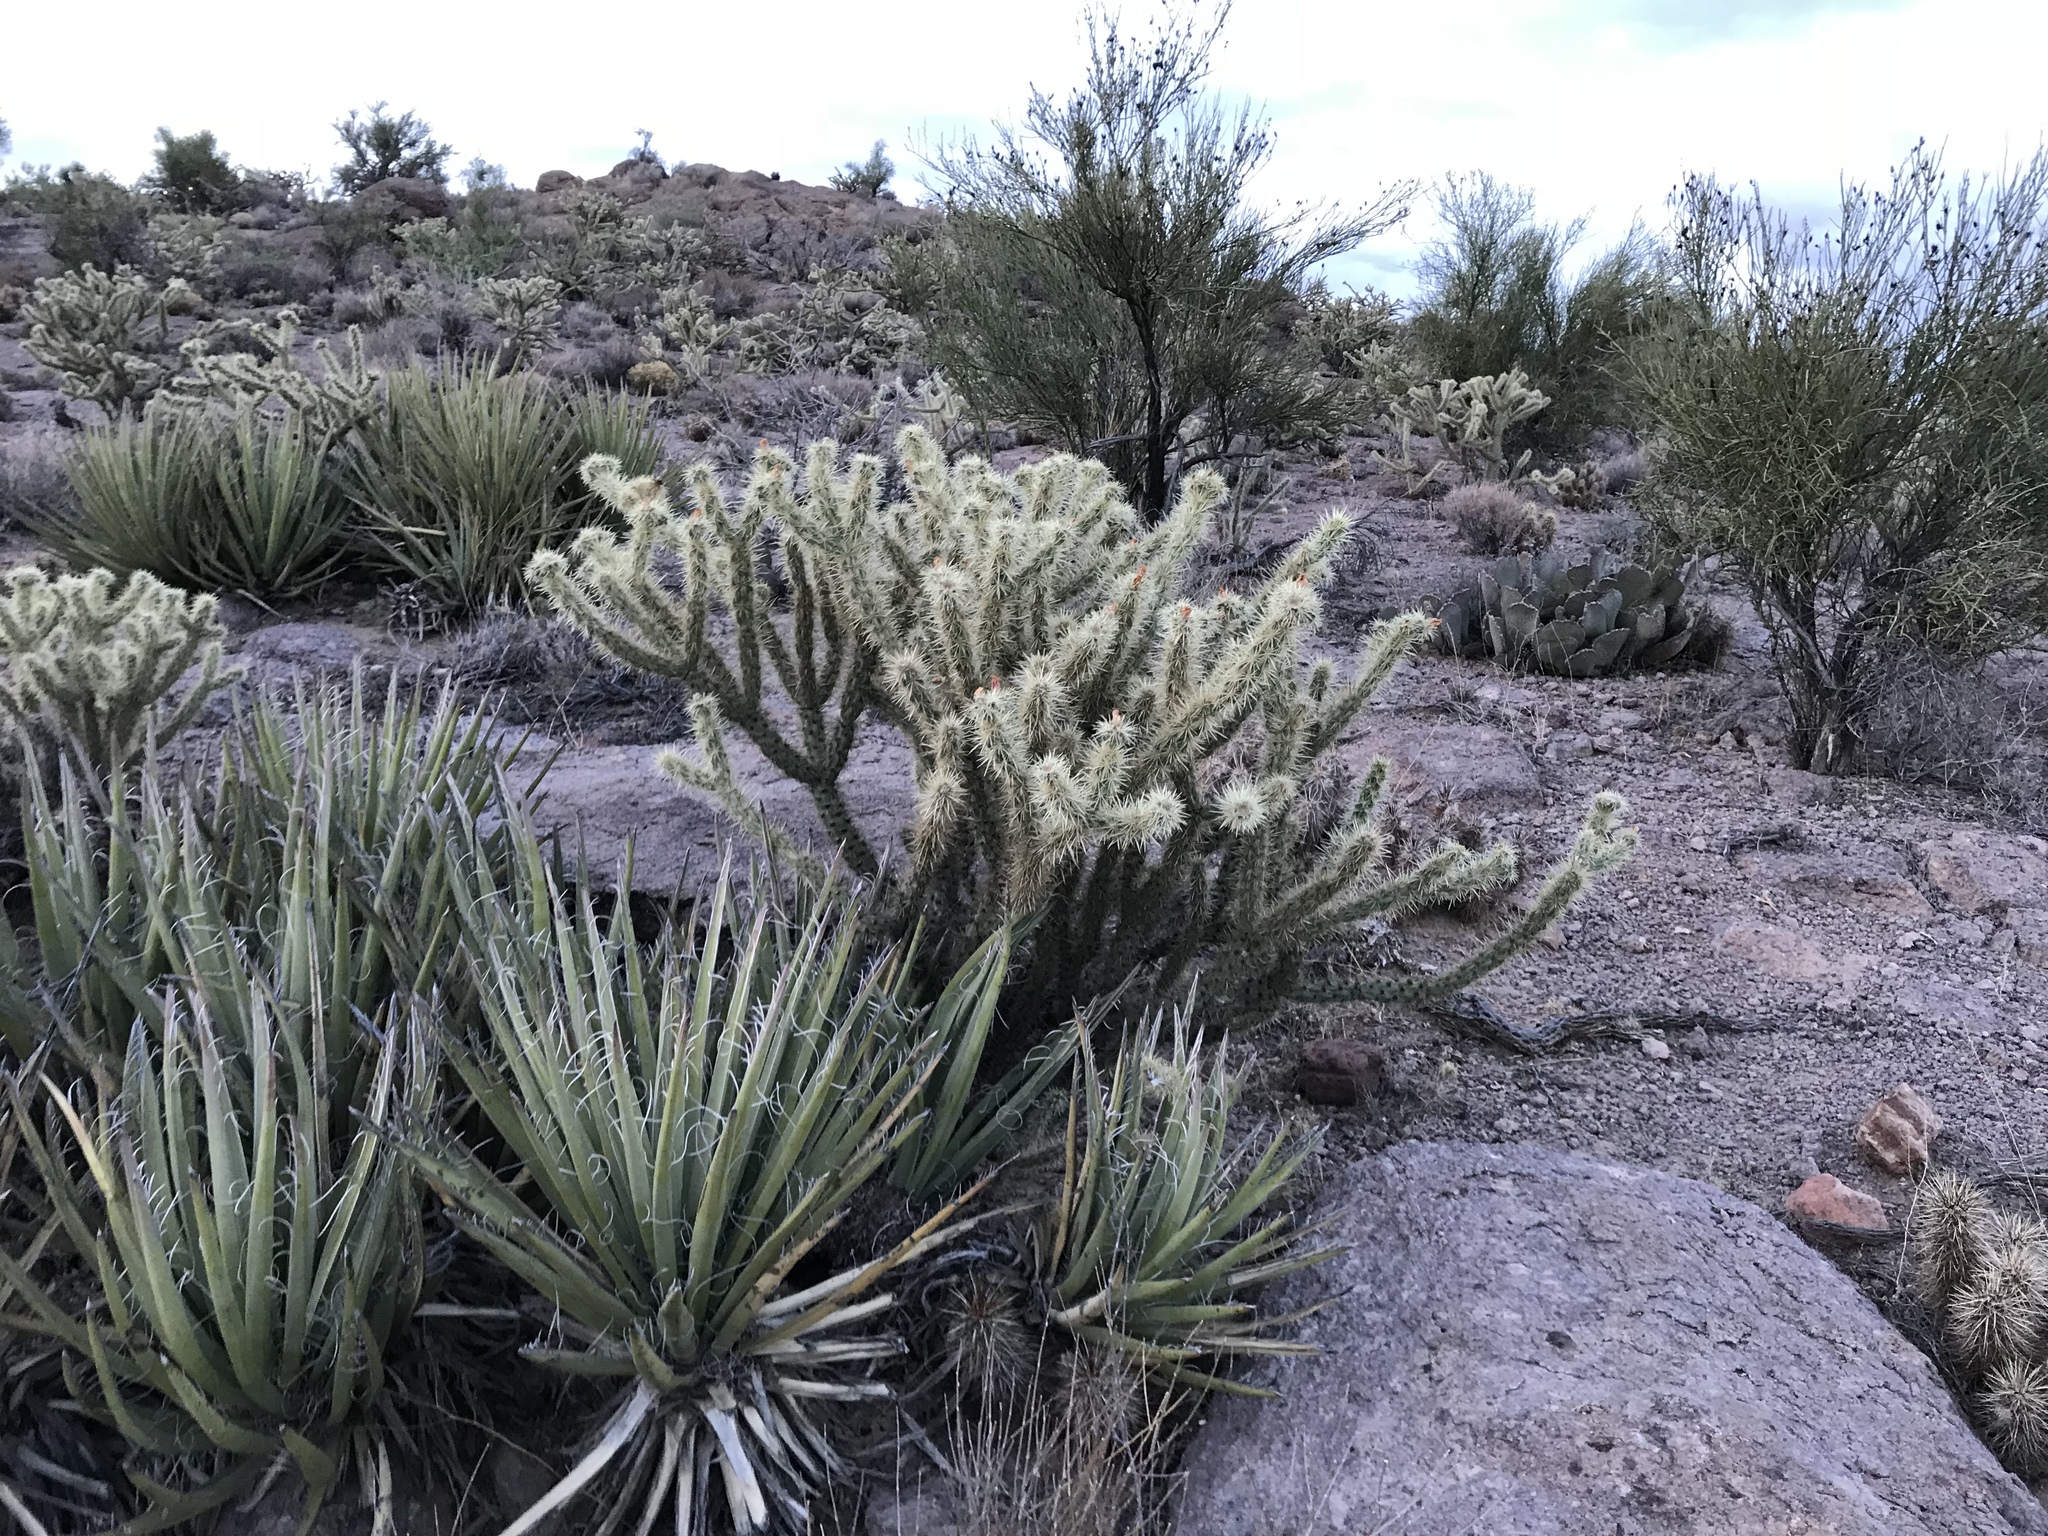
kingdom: Plantae
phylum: Tracheophyta
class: Magnoliopsida
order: Caryophyllales
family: Cactaceae
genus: Cylindropuntia
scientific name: Cylindropuntia acanthocarpa
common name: Buckhorn cholla
